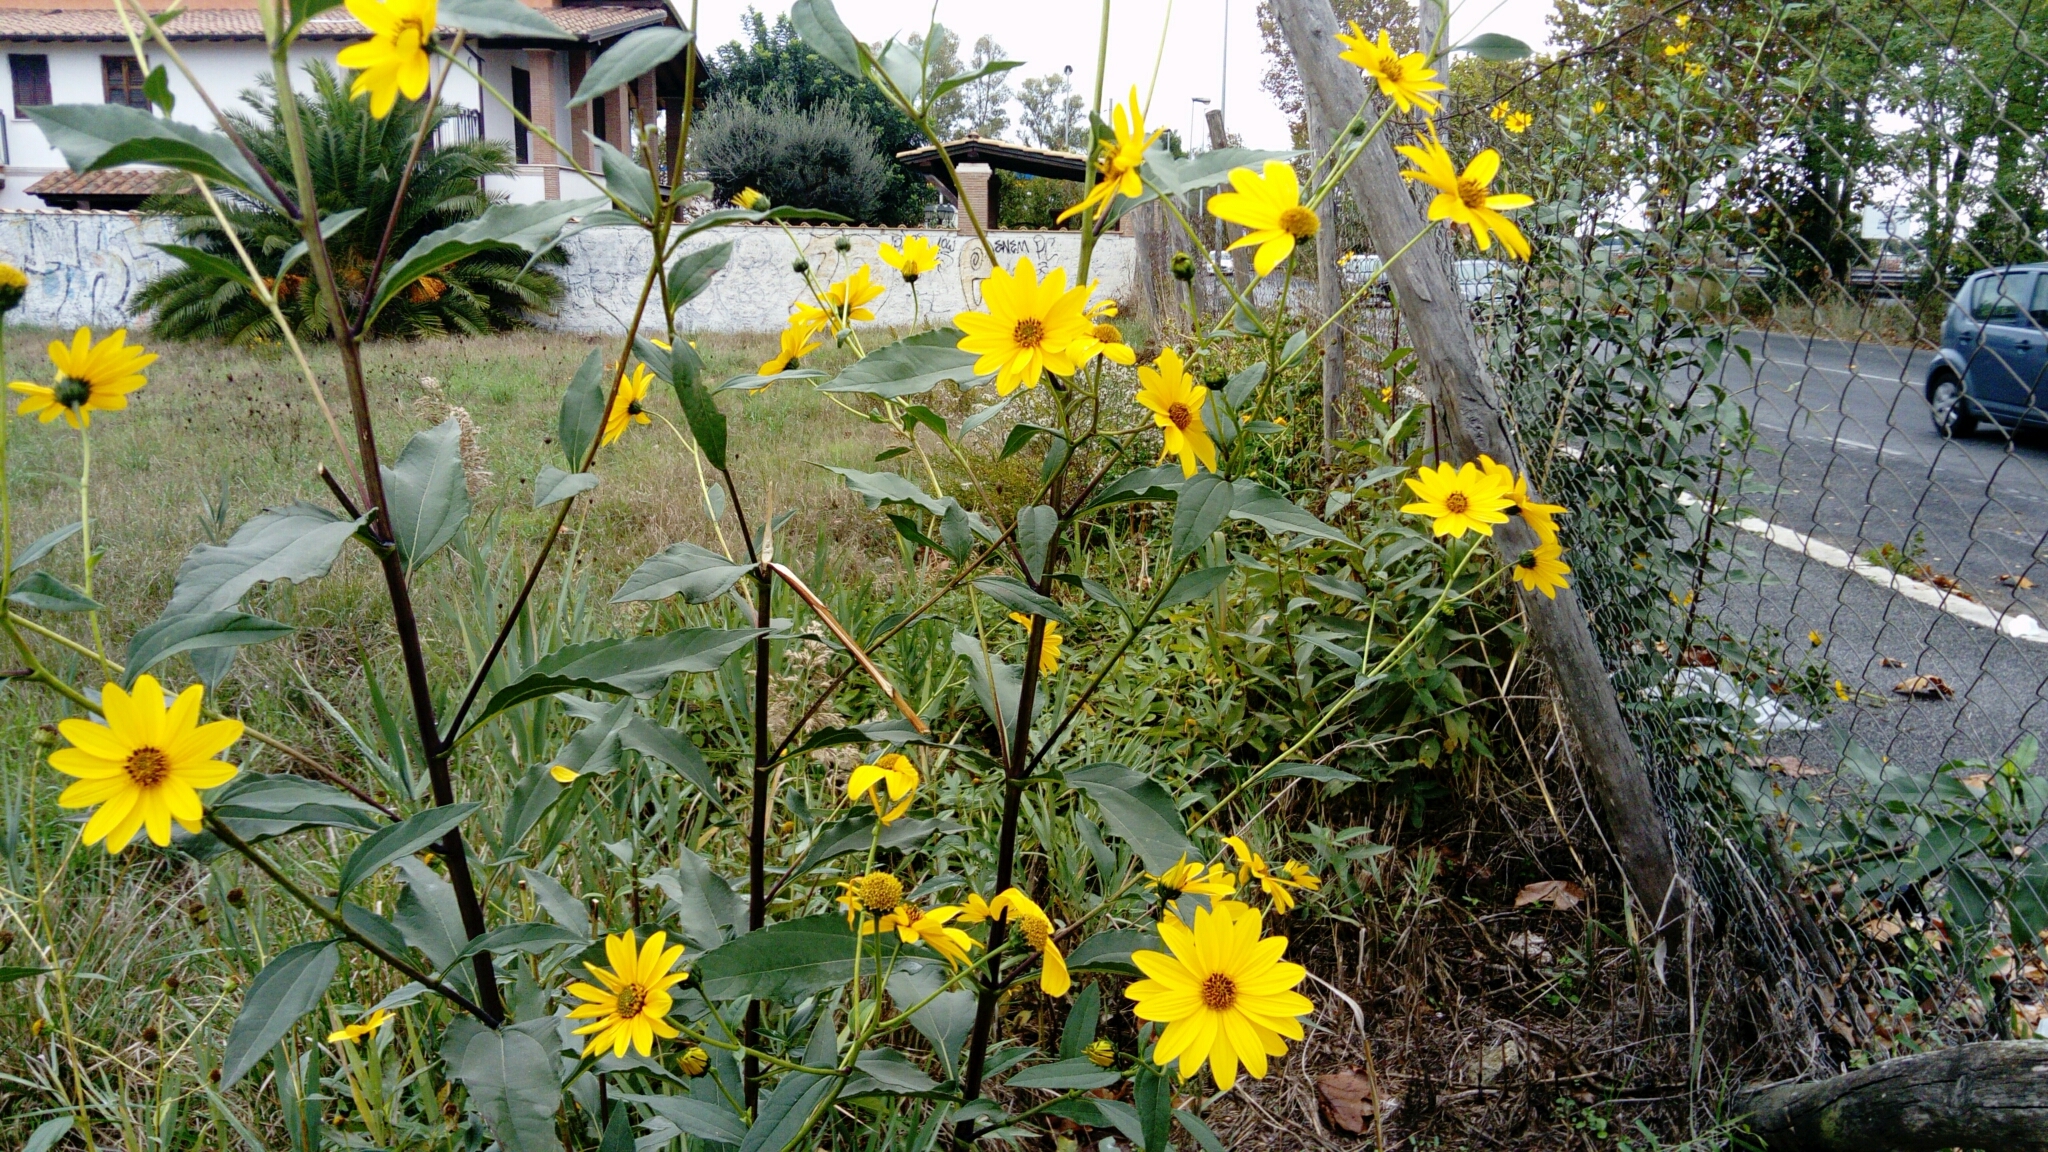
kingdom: Plantae
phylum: Tracheophyta
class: Magnoliopsida
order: Asterales
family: Asteraceae
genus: Helianthus
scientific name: Helianthus tuberosus
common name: Jerusalem artichoke
